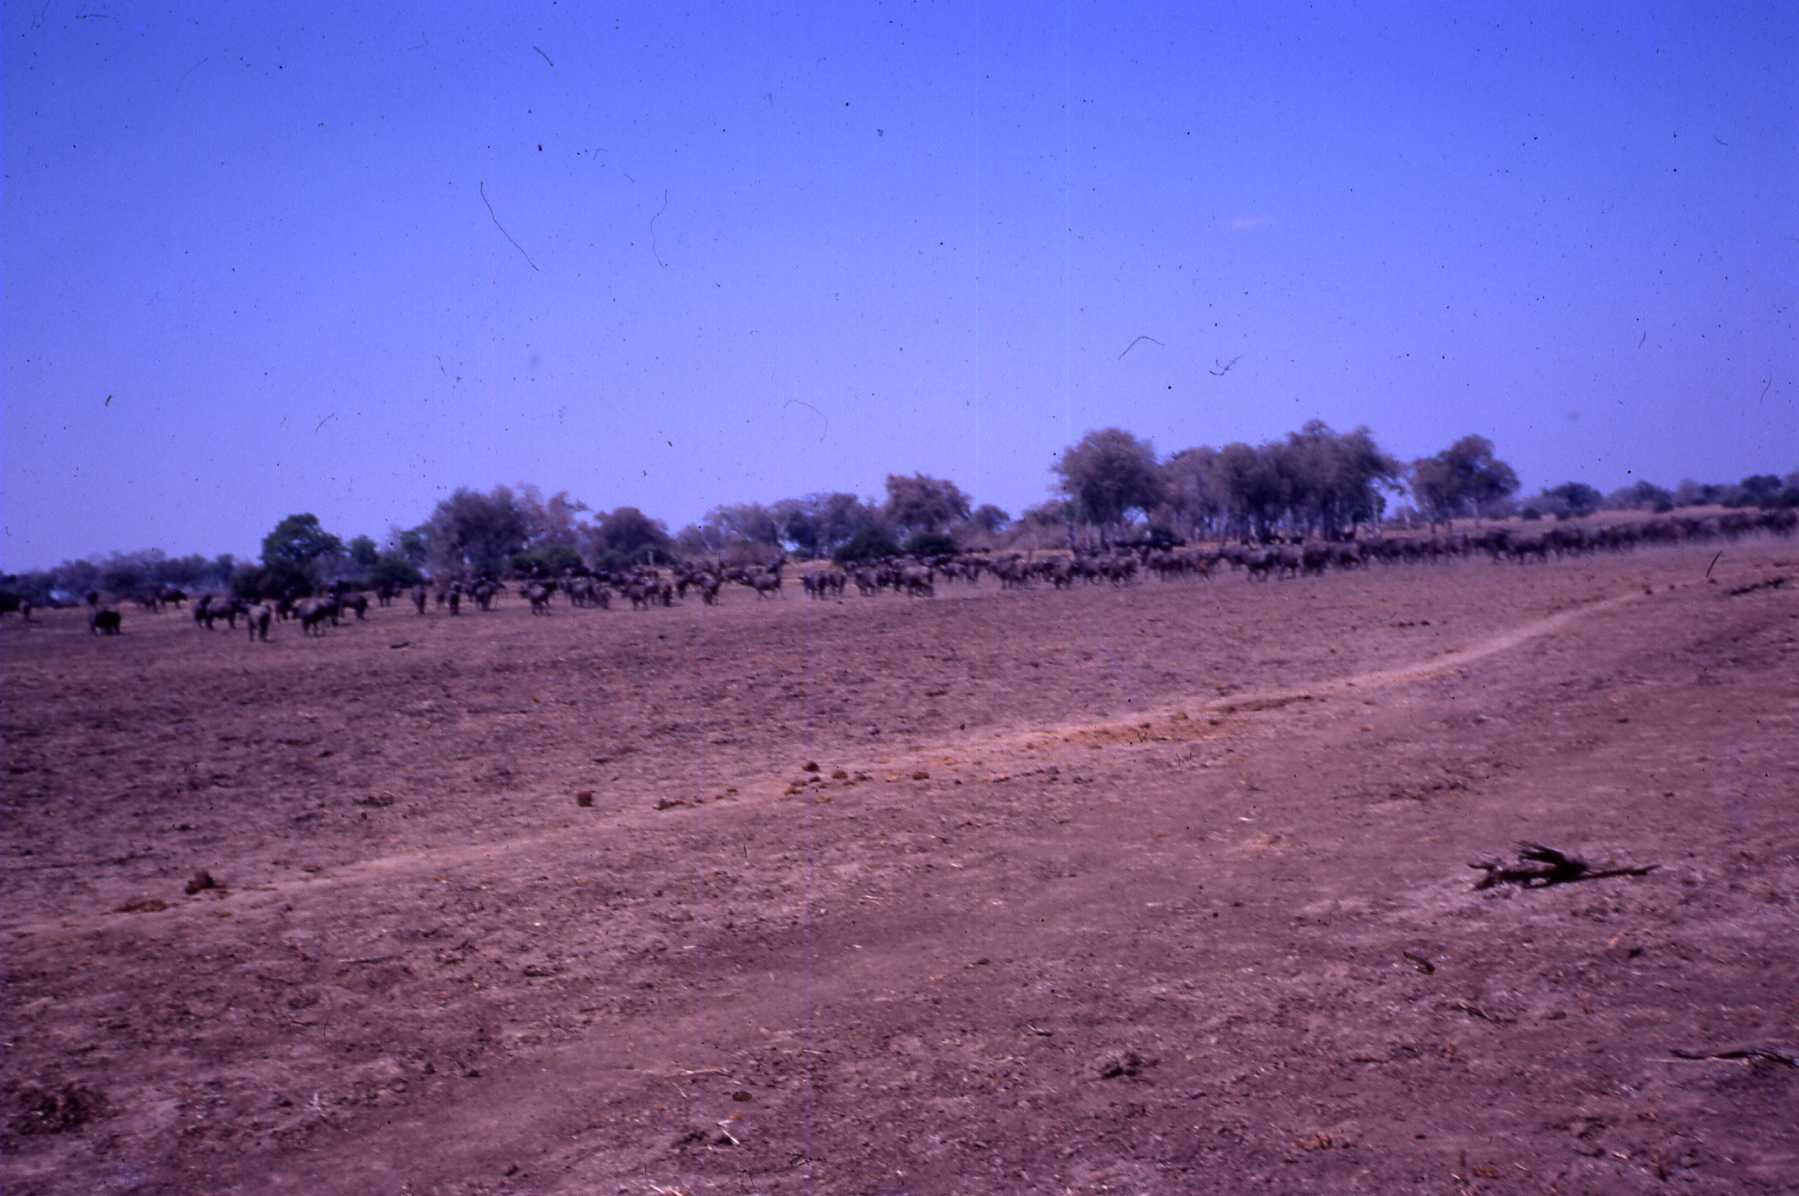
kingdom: Animalia
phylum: Chordata
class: Mammalia
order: Artiodactyla
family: Bovidae
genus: Syncerus
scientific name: Syncerus caffer
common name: African buffalo
